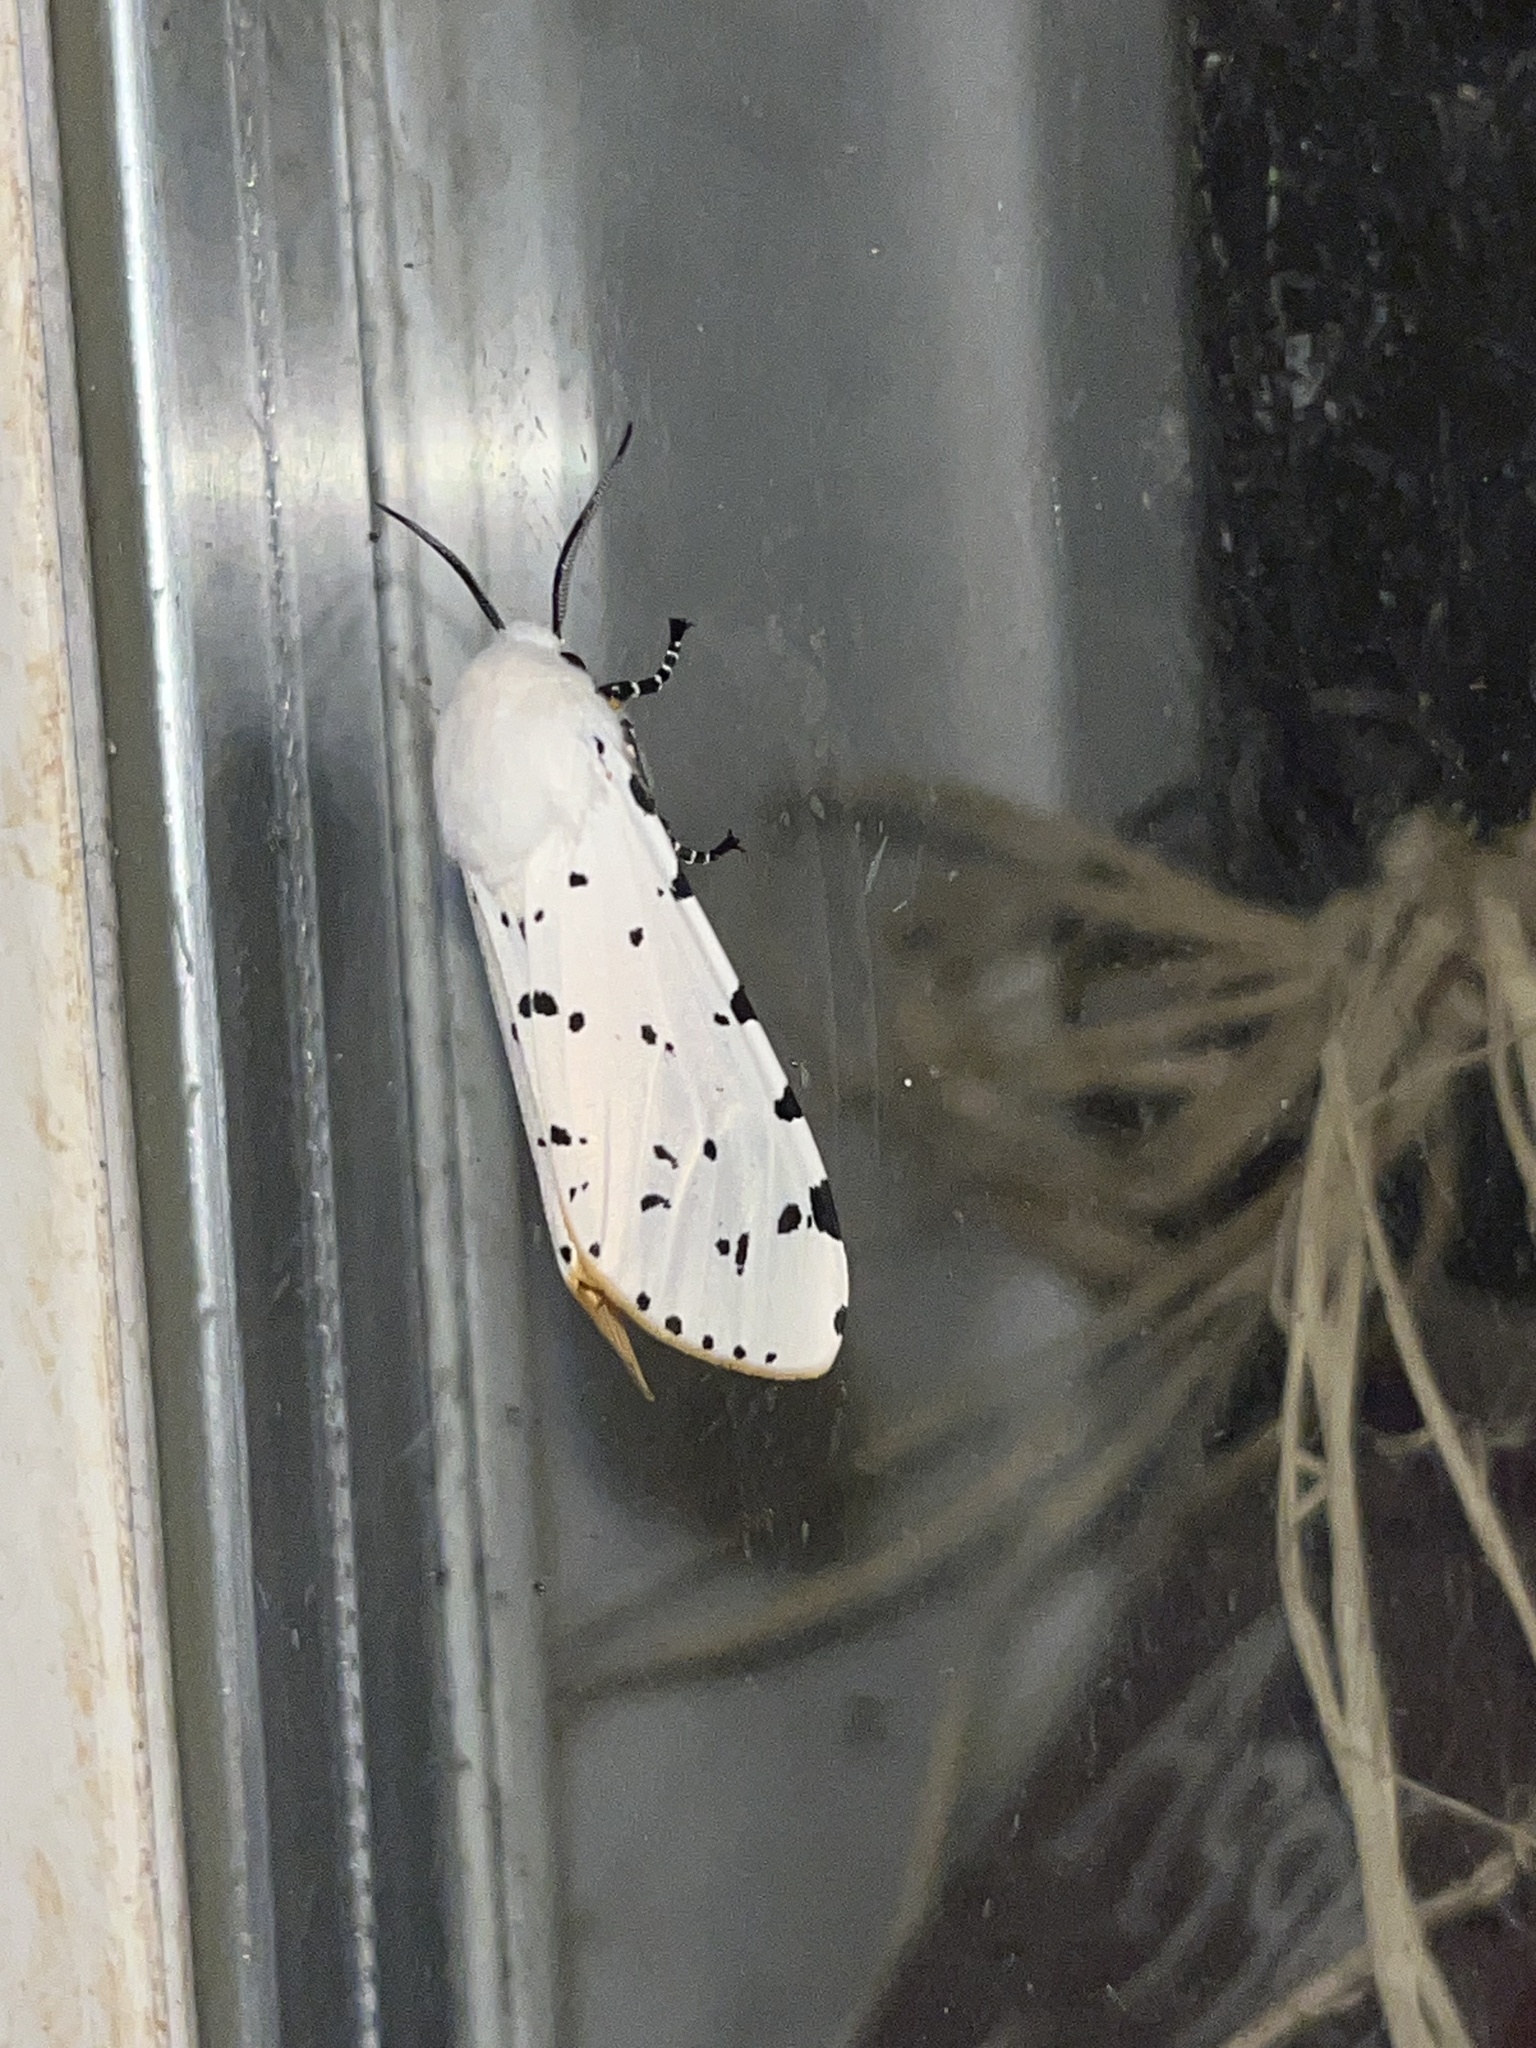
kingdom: Animalia
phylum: Arthropoda
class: Insecta
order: Lepidoptera
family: Erebidae
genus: Estigmene
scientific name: Estigmene acrea
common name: Salt marsh moth
